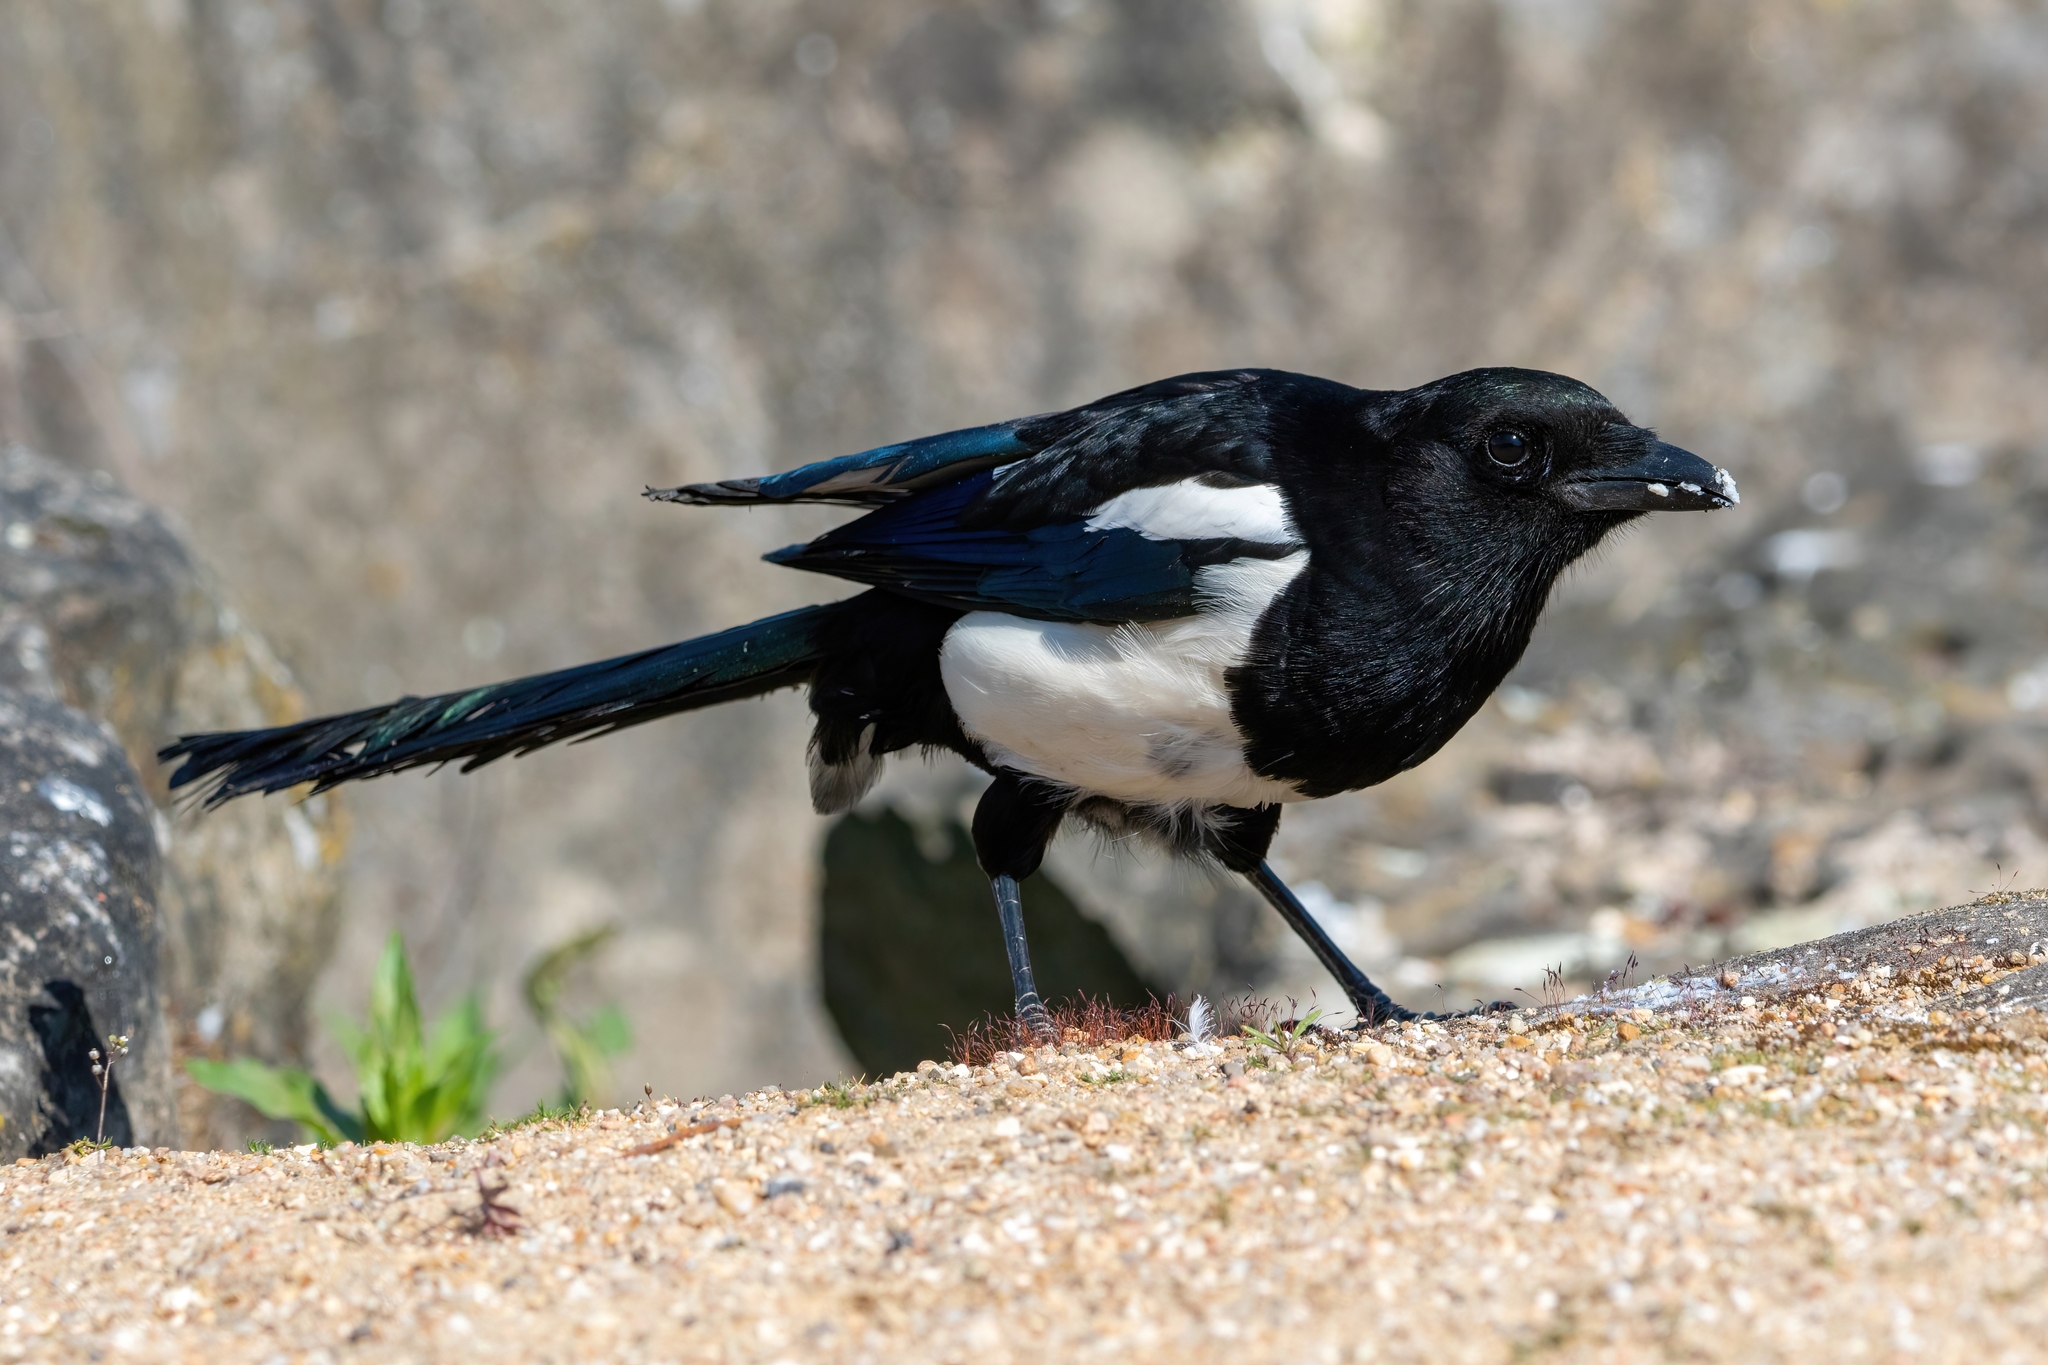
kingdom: Animalia
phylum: Chordata
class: Aves
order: Passeriformes
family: Corvidae
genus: Pica
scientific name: Pica pica
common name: Eurasian magpie
